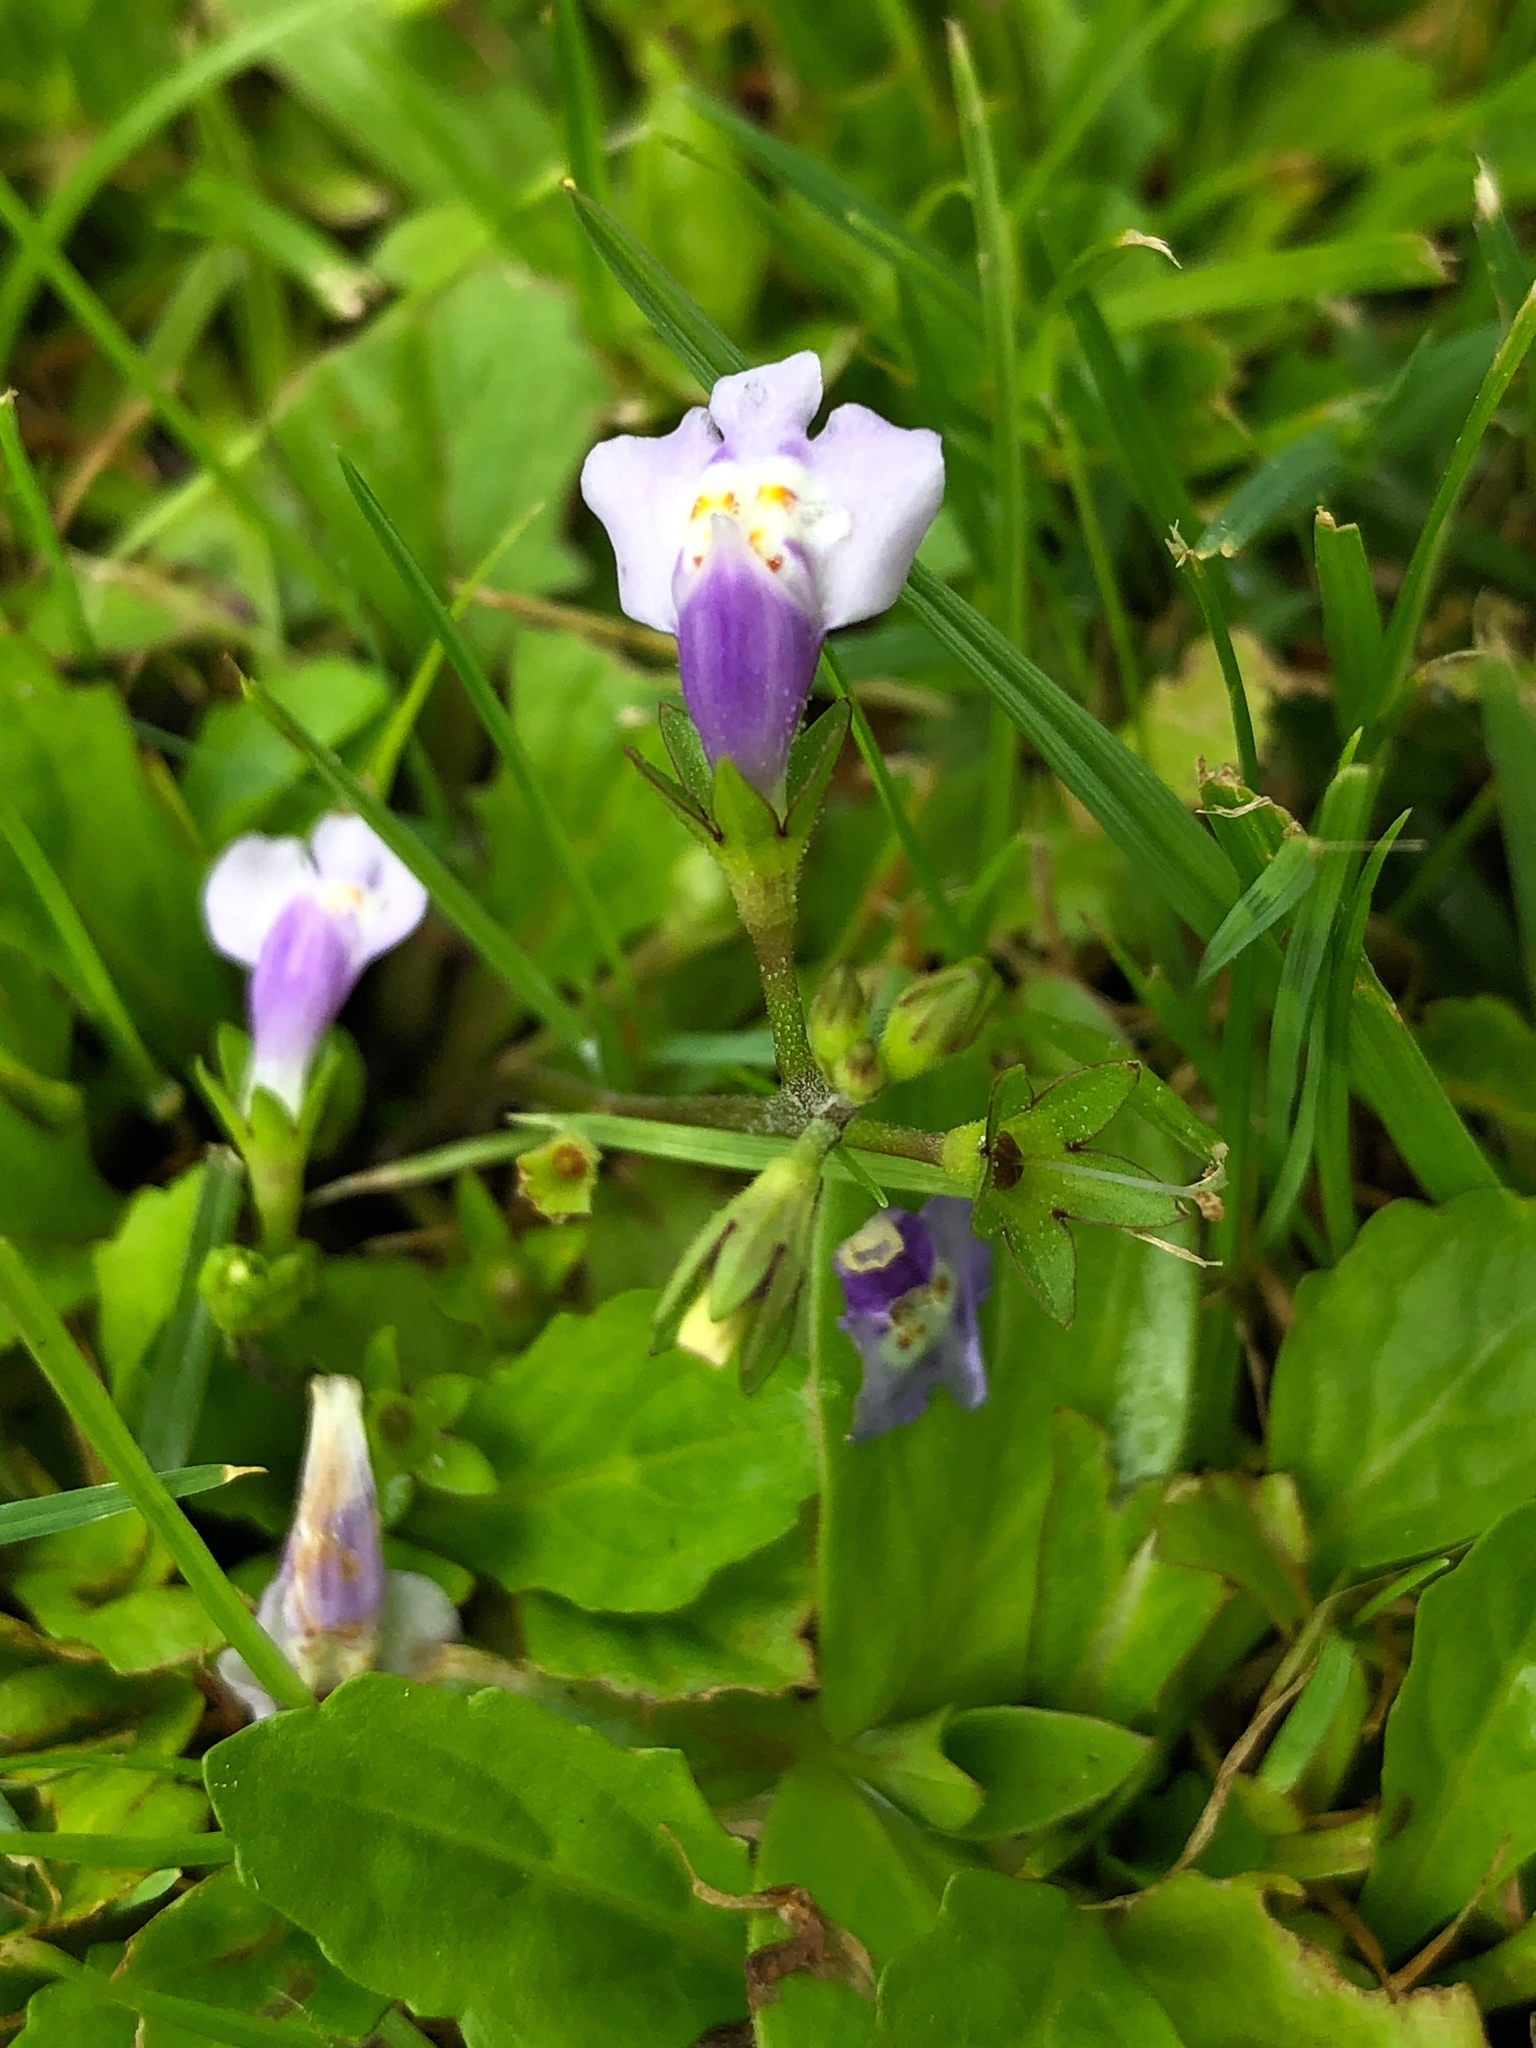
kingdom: Plantae
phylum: Tracheophyta
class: Magnoliopsida
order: Lamiales
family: Mazaceae
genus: Mazus
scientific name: Mazus pumilus
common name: Japanese mazus
